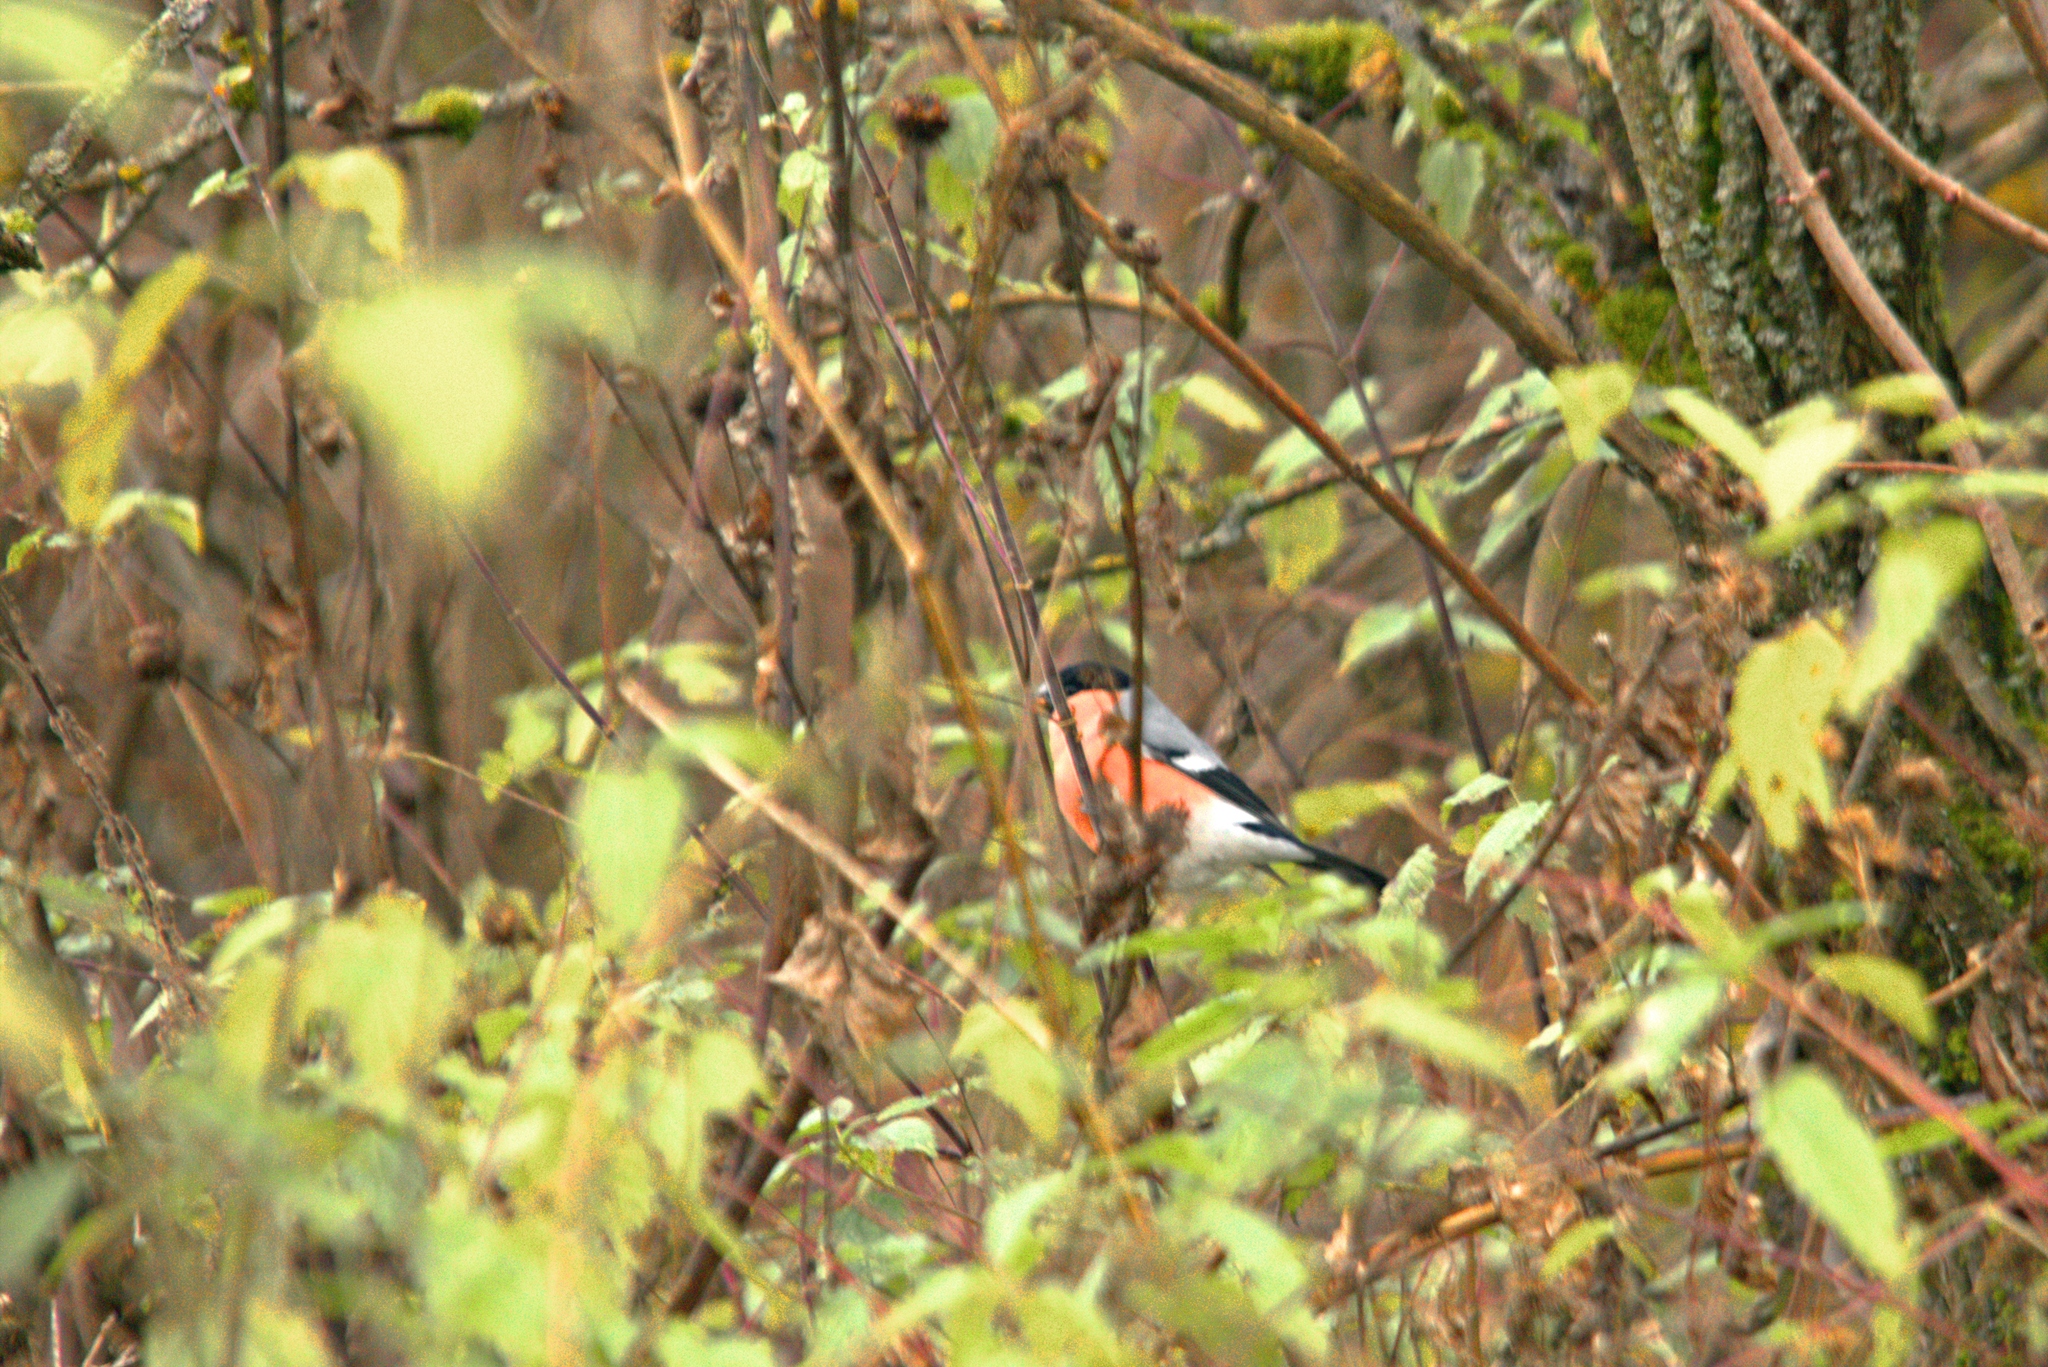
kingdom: Animalia
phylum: Chordata
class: Aves
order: Passeriformes
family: Fringillidae
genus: Pyrrhula
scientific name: Pyrrhula pyrrhula
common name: Eurasian bullfinch
